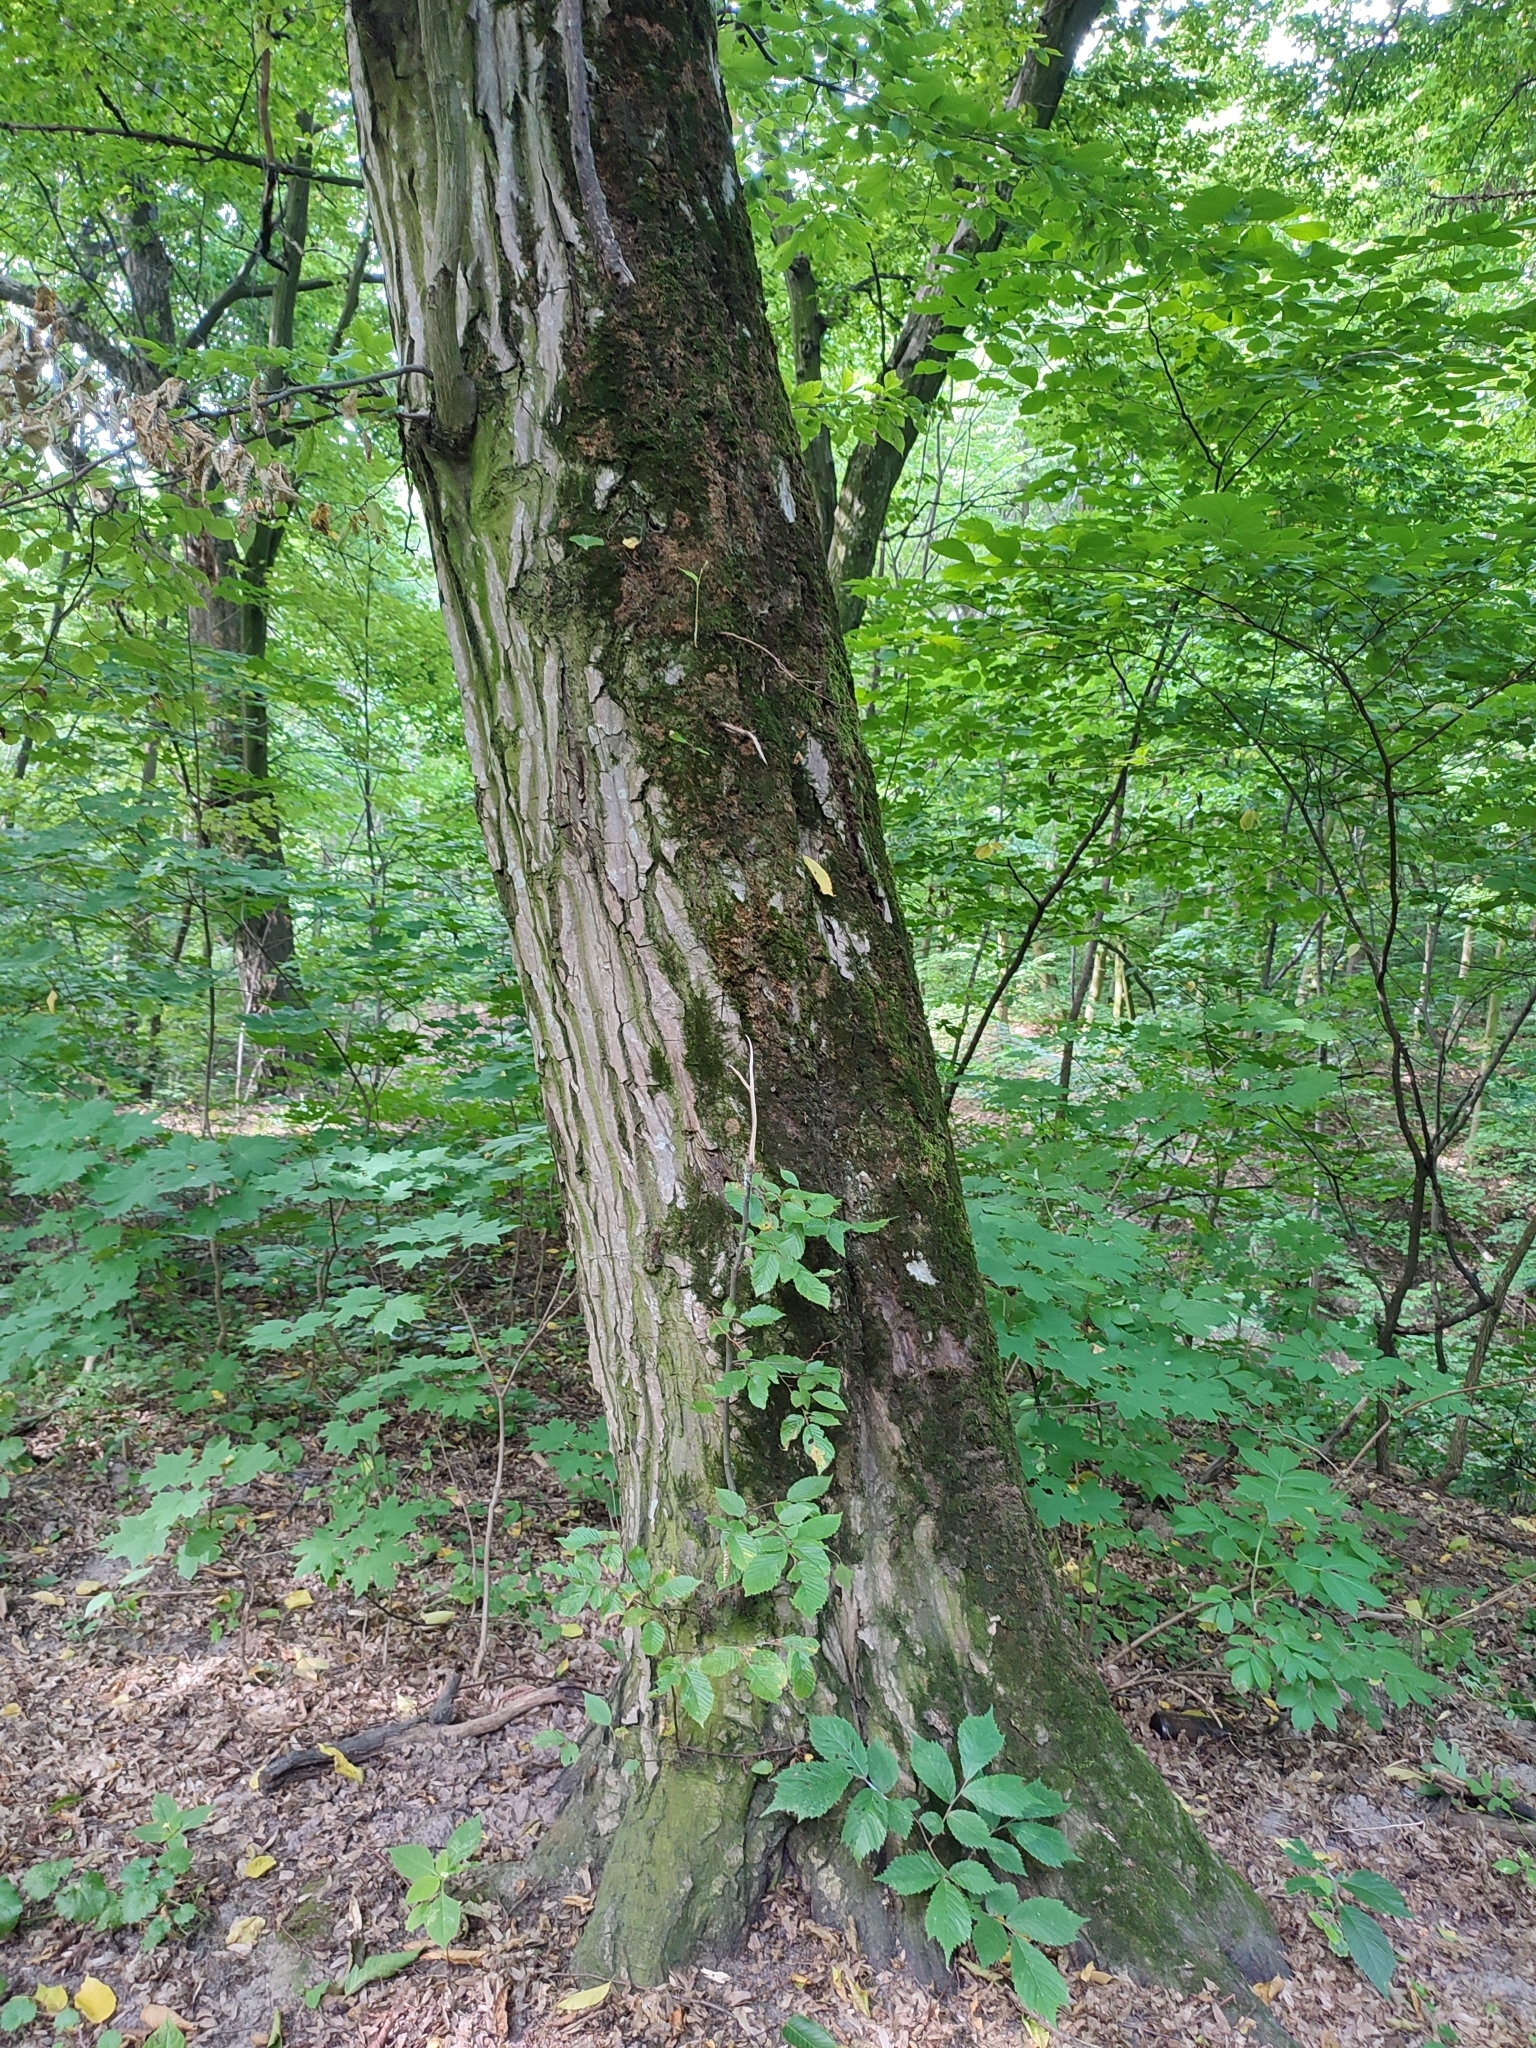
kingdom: Plantae
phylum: Tracheophyta
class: Magnoliopsida
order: Fagales
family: Betulaceae
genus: Carpinus
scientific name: Carpinus betulus
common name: Hornbeam
